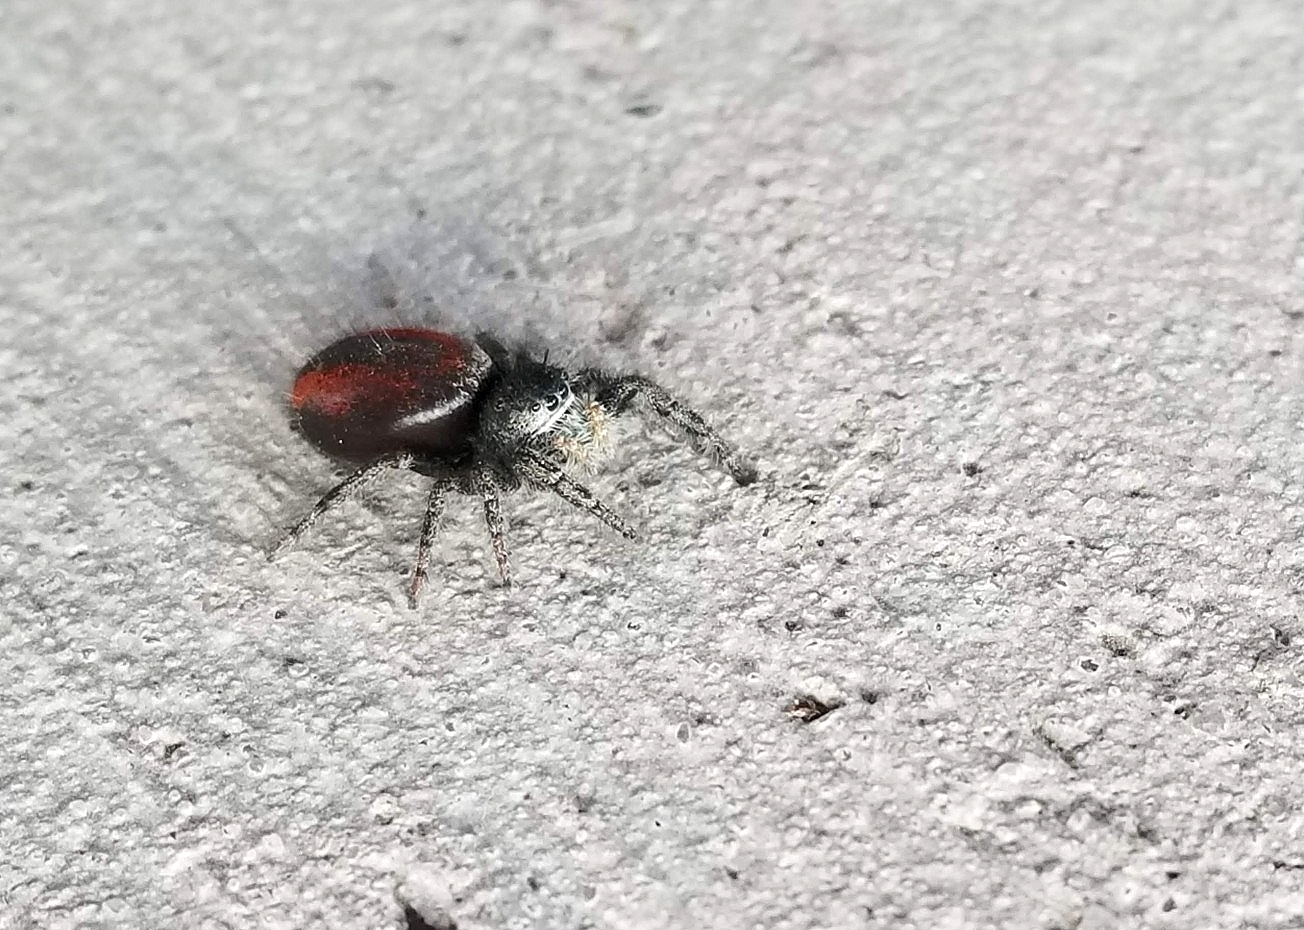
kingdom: Animalia
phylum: Arthropoda
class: Arachnida
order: Araneae
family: Salticidae
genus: Phidippus
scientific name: Phidippus johnsoni
